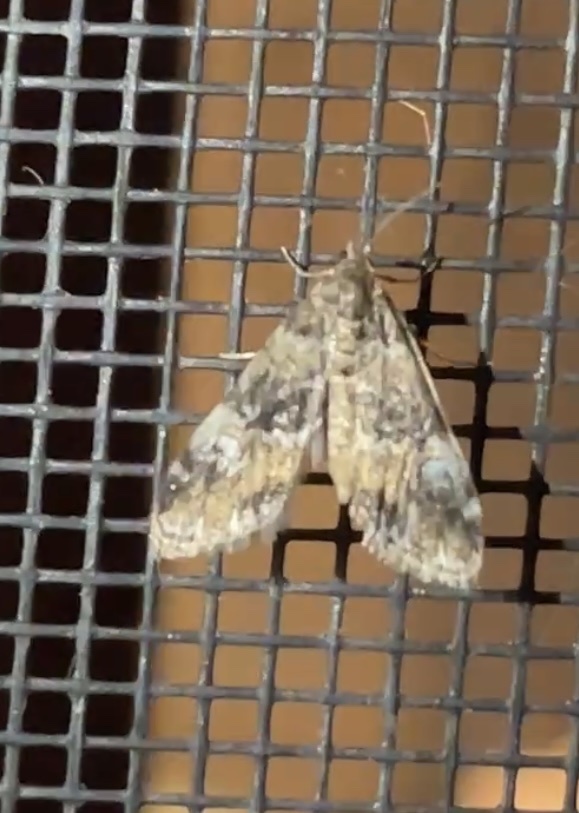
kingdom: Animalia
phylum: Arthropoda
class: Insecta
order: Lepidoptera
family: Crambidae
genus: Elophila
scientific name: Elophila obliteralis
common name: Waterlily leafcutter moth
